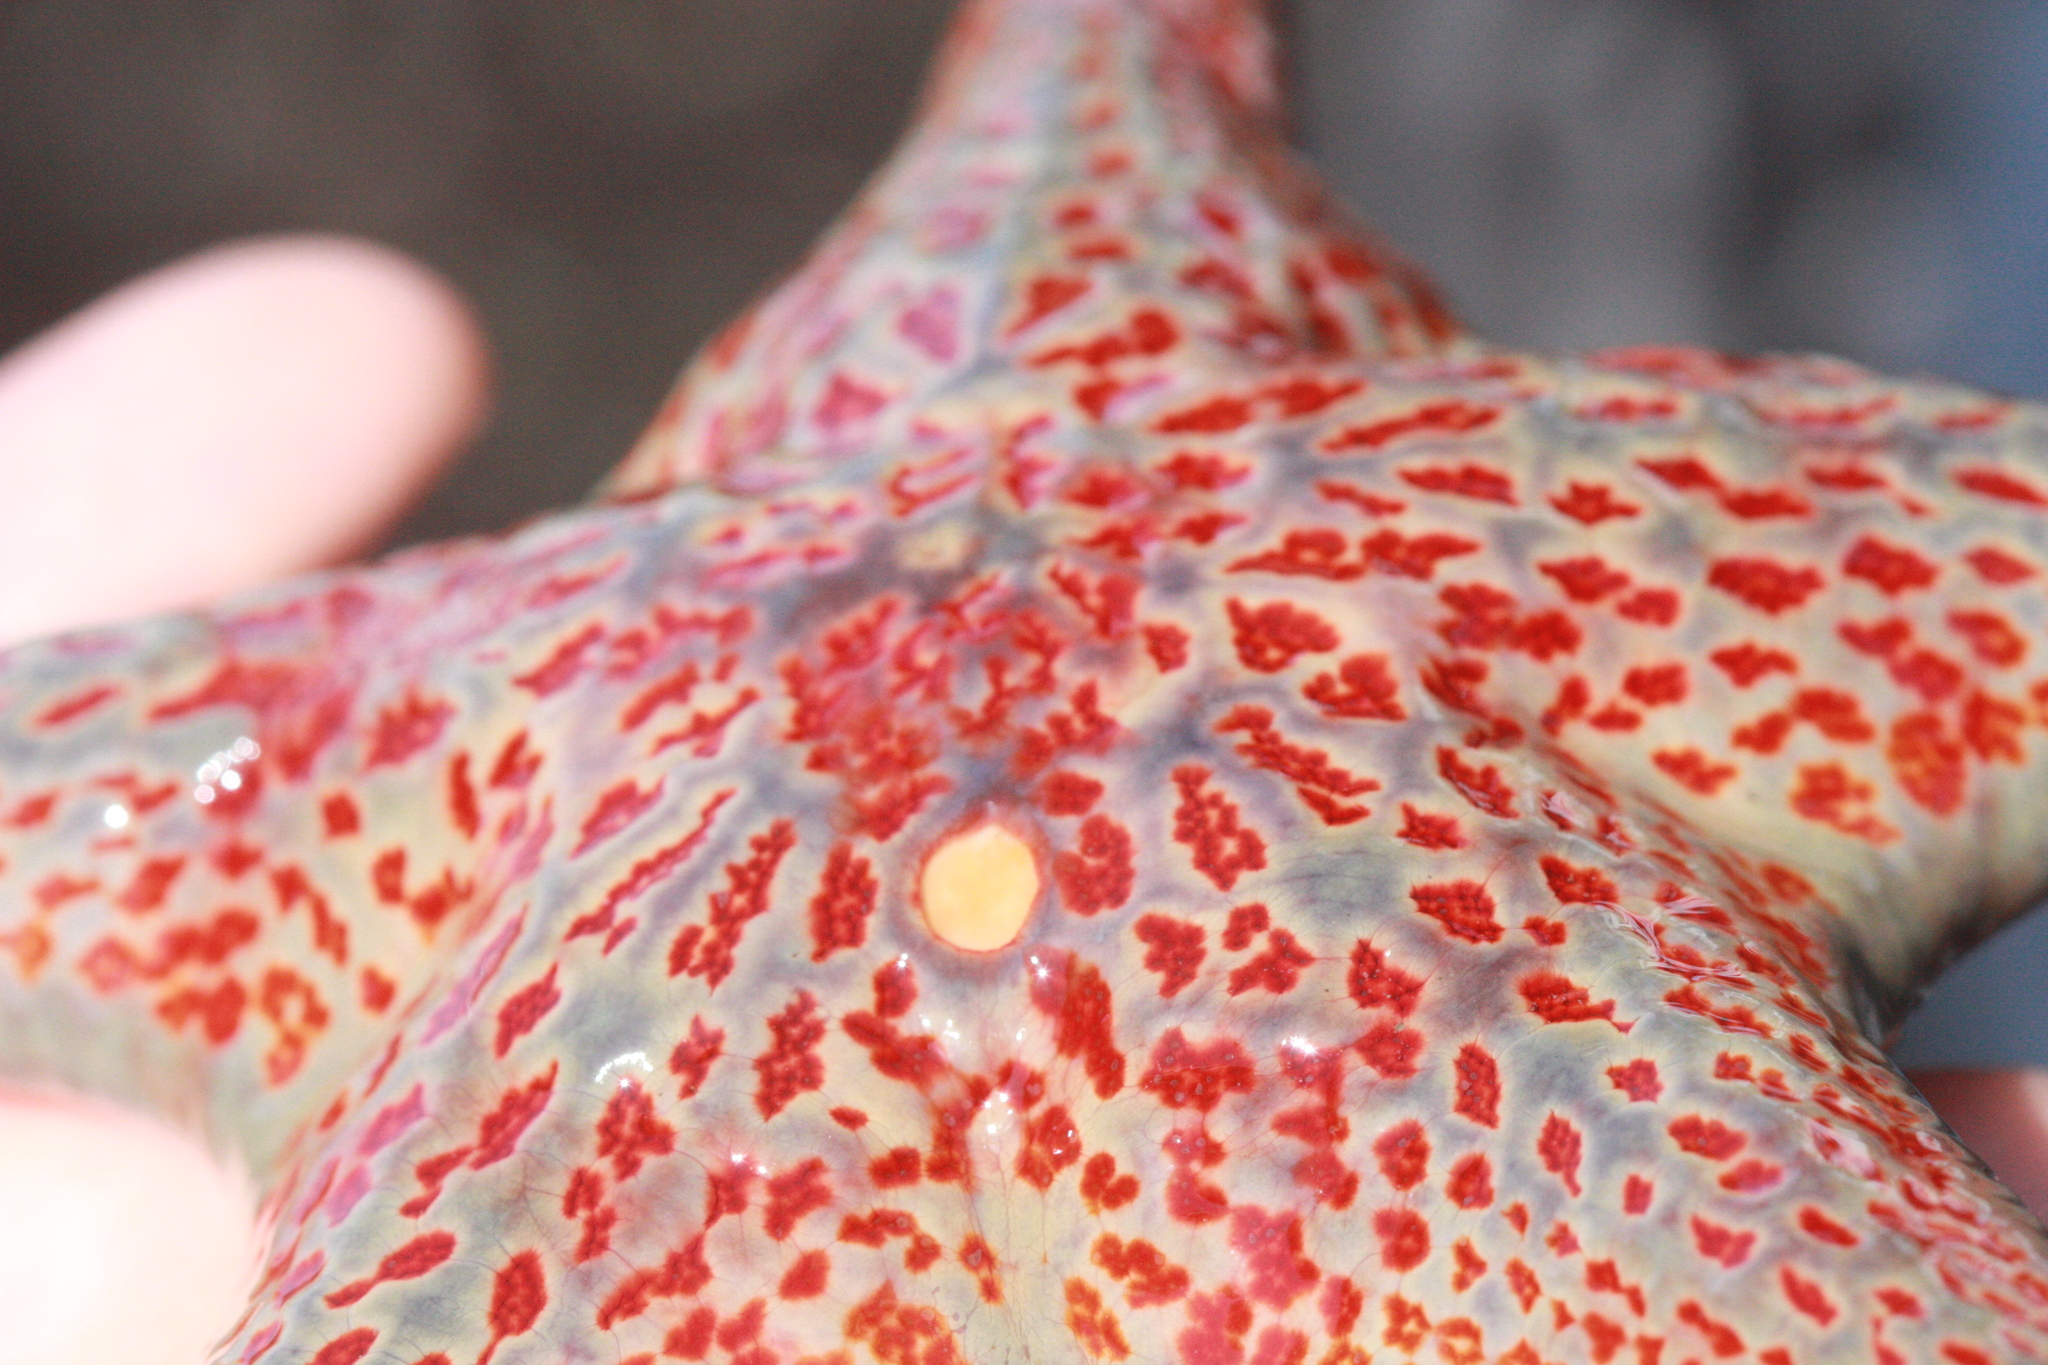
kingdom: Animalia
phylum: Echinodermata
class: Asteroidea
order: Valvatida
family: Asteropseidae
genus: Dermasterias
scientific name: Dermasterias imbricata
